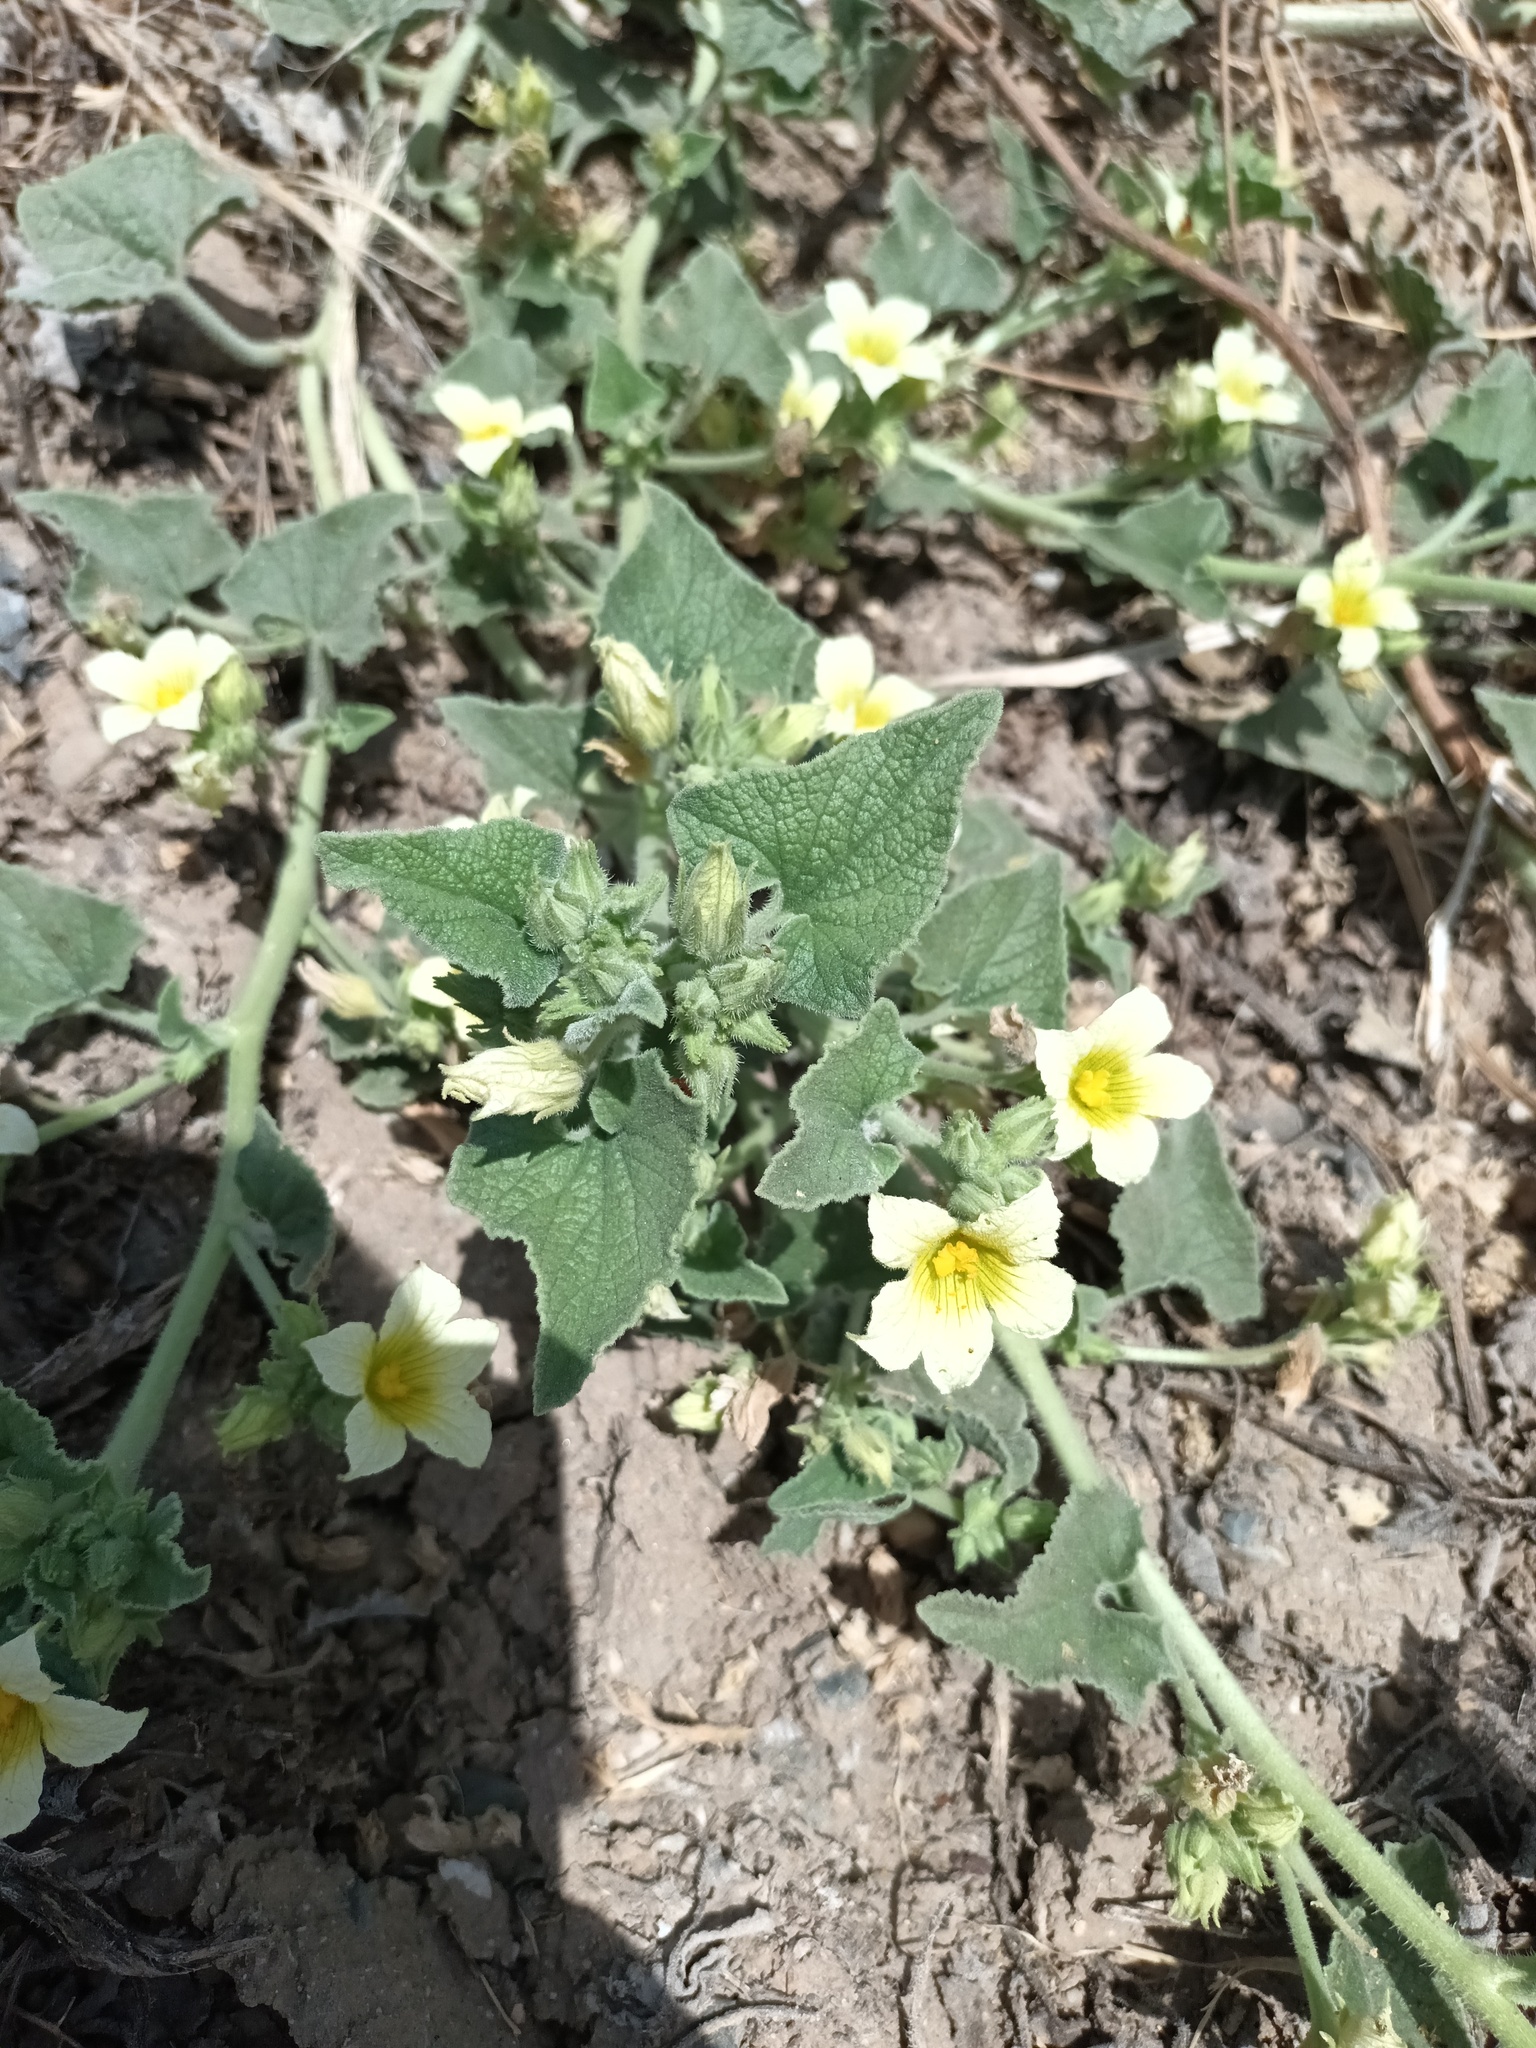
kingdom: Plantae
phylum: Tracheophyta
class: Magnoliopsida
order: Cucurbitales
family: Cucurbitaceae
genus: Ecballium
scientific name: Ecballium elaterium
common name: Squirting cucumber
